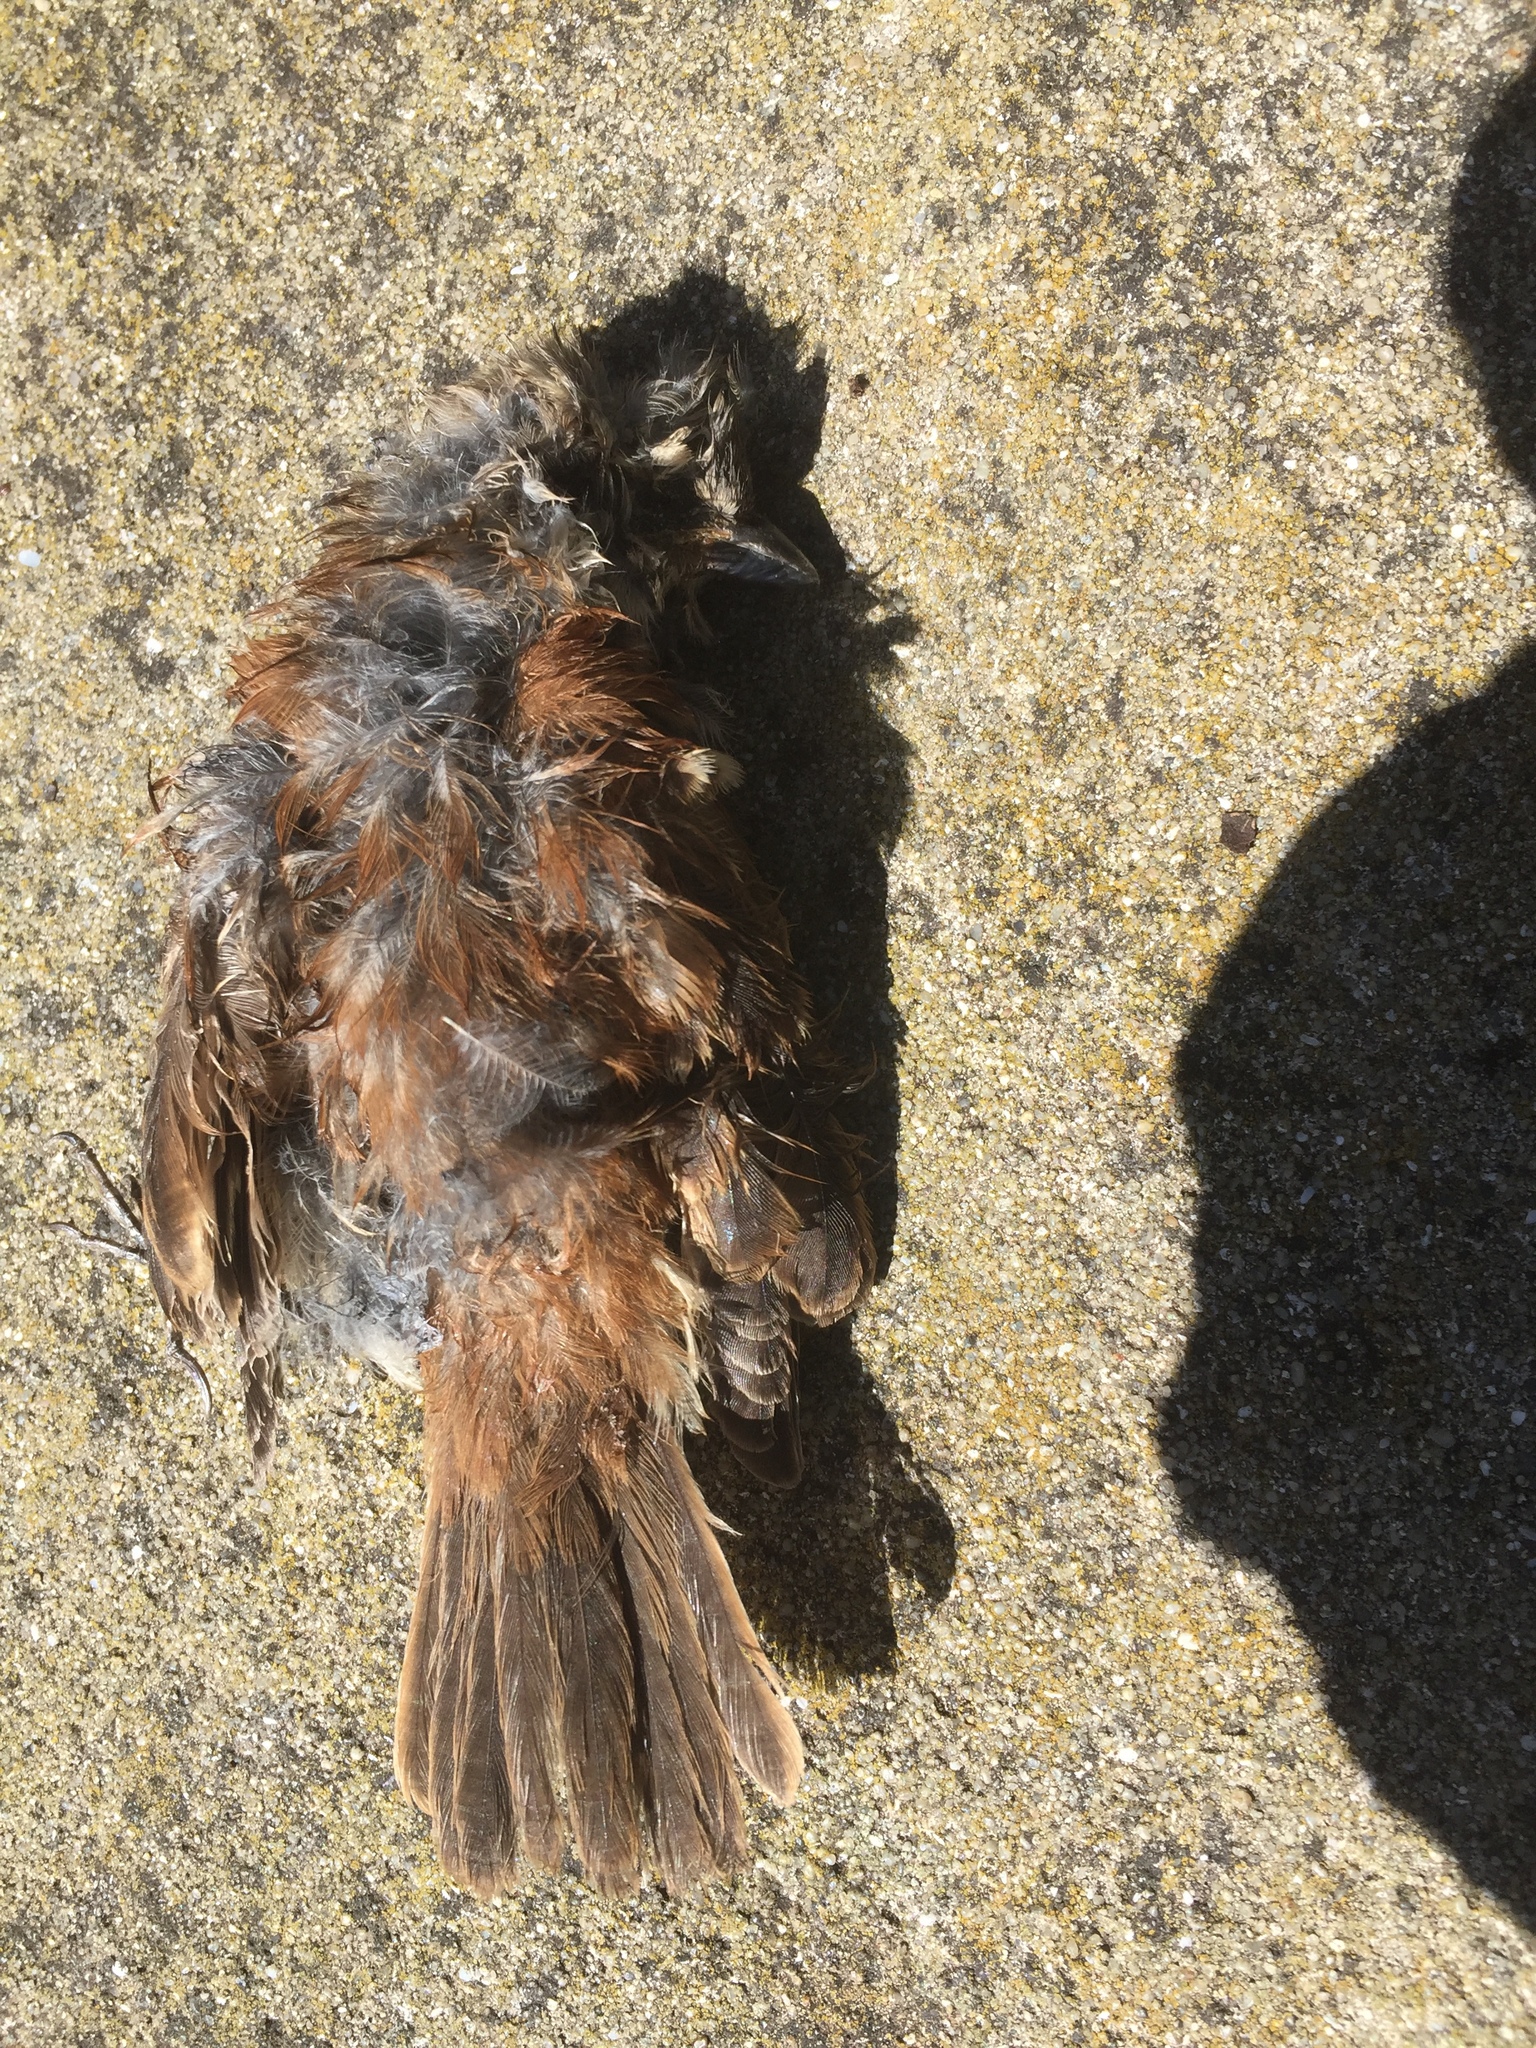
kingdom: Animalia
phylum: Chordata
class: Aves
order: Passeriformes
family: Passeridae
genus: Passer
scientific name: Passer melanurus
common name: Cape sparrow
